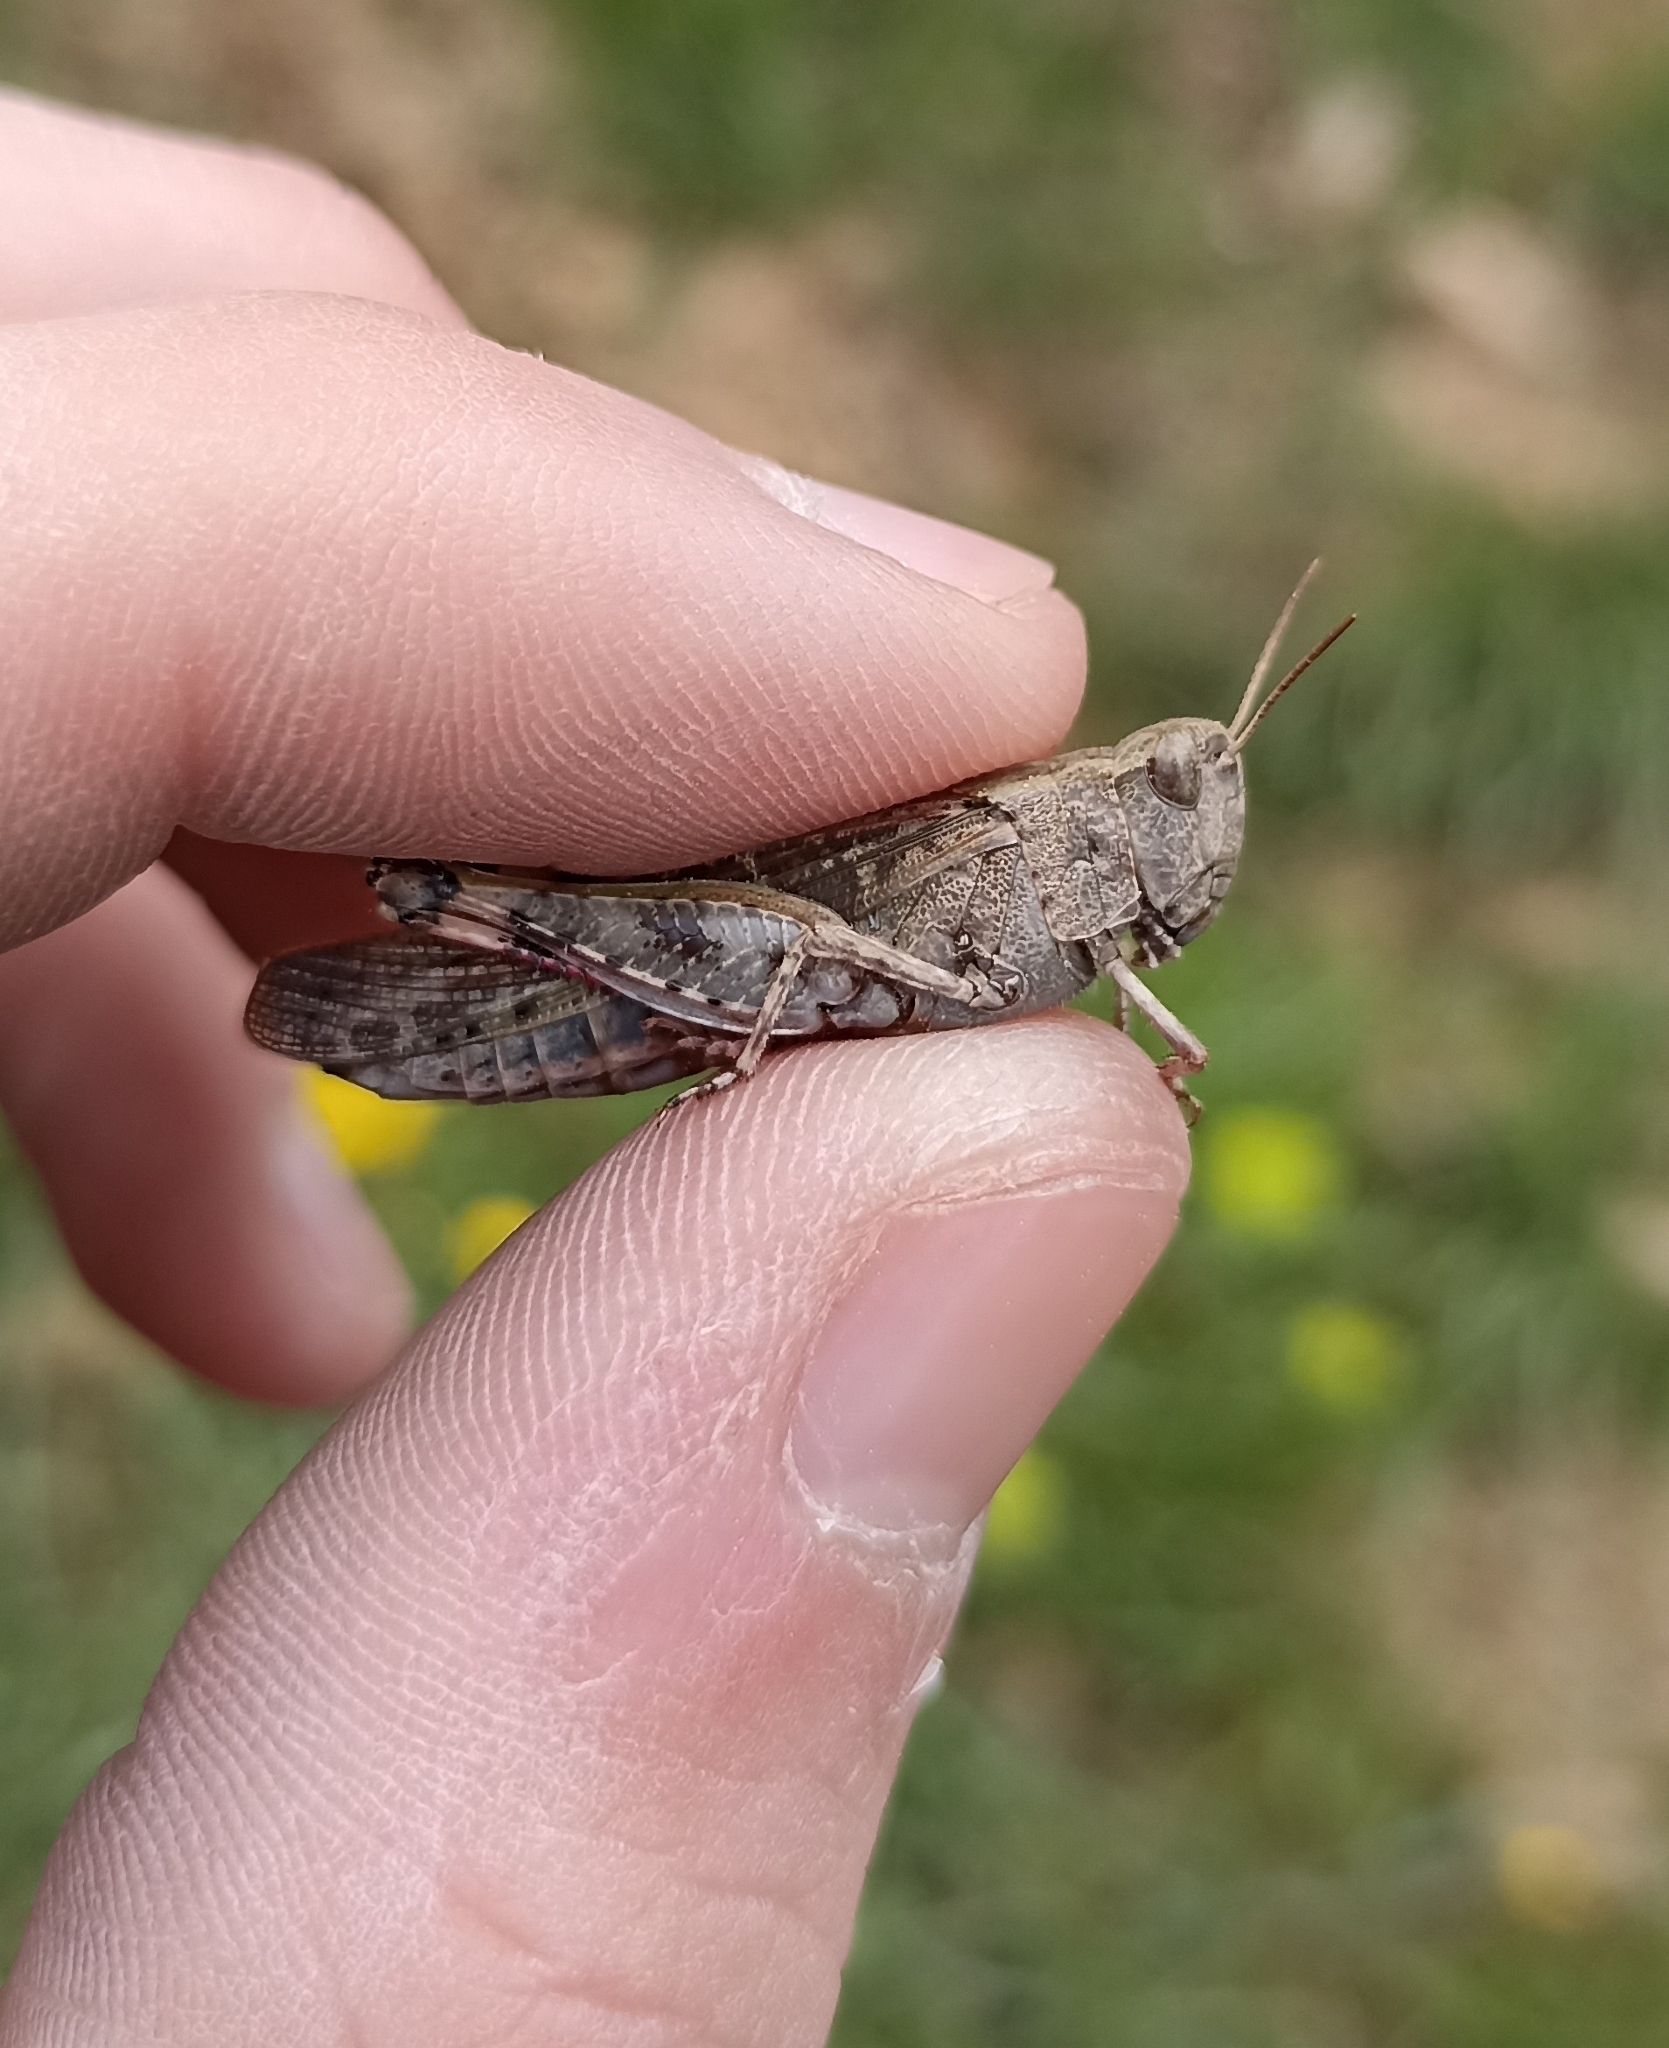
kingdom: Animalia
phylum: Arthropoda
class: Insecta
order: Orthoptera
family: Acrididae
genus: Aiolopus
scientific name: Aiolopus strepens
